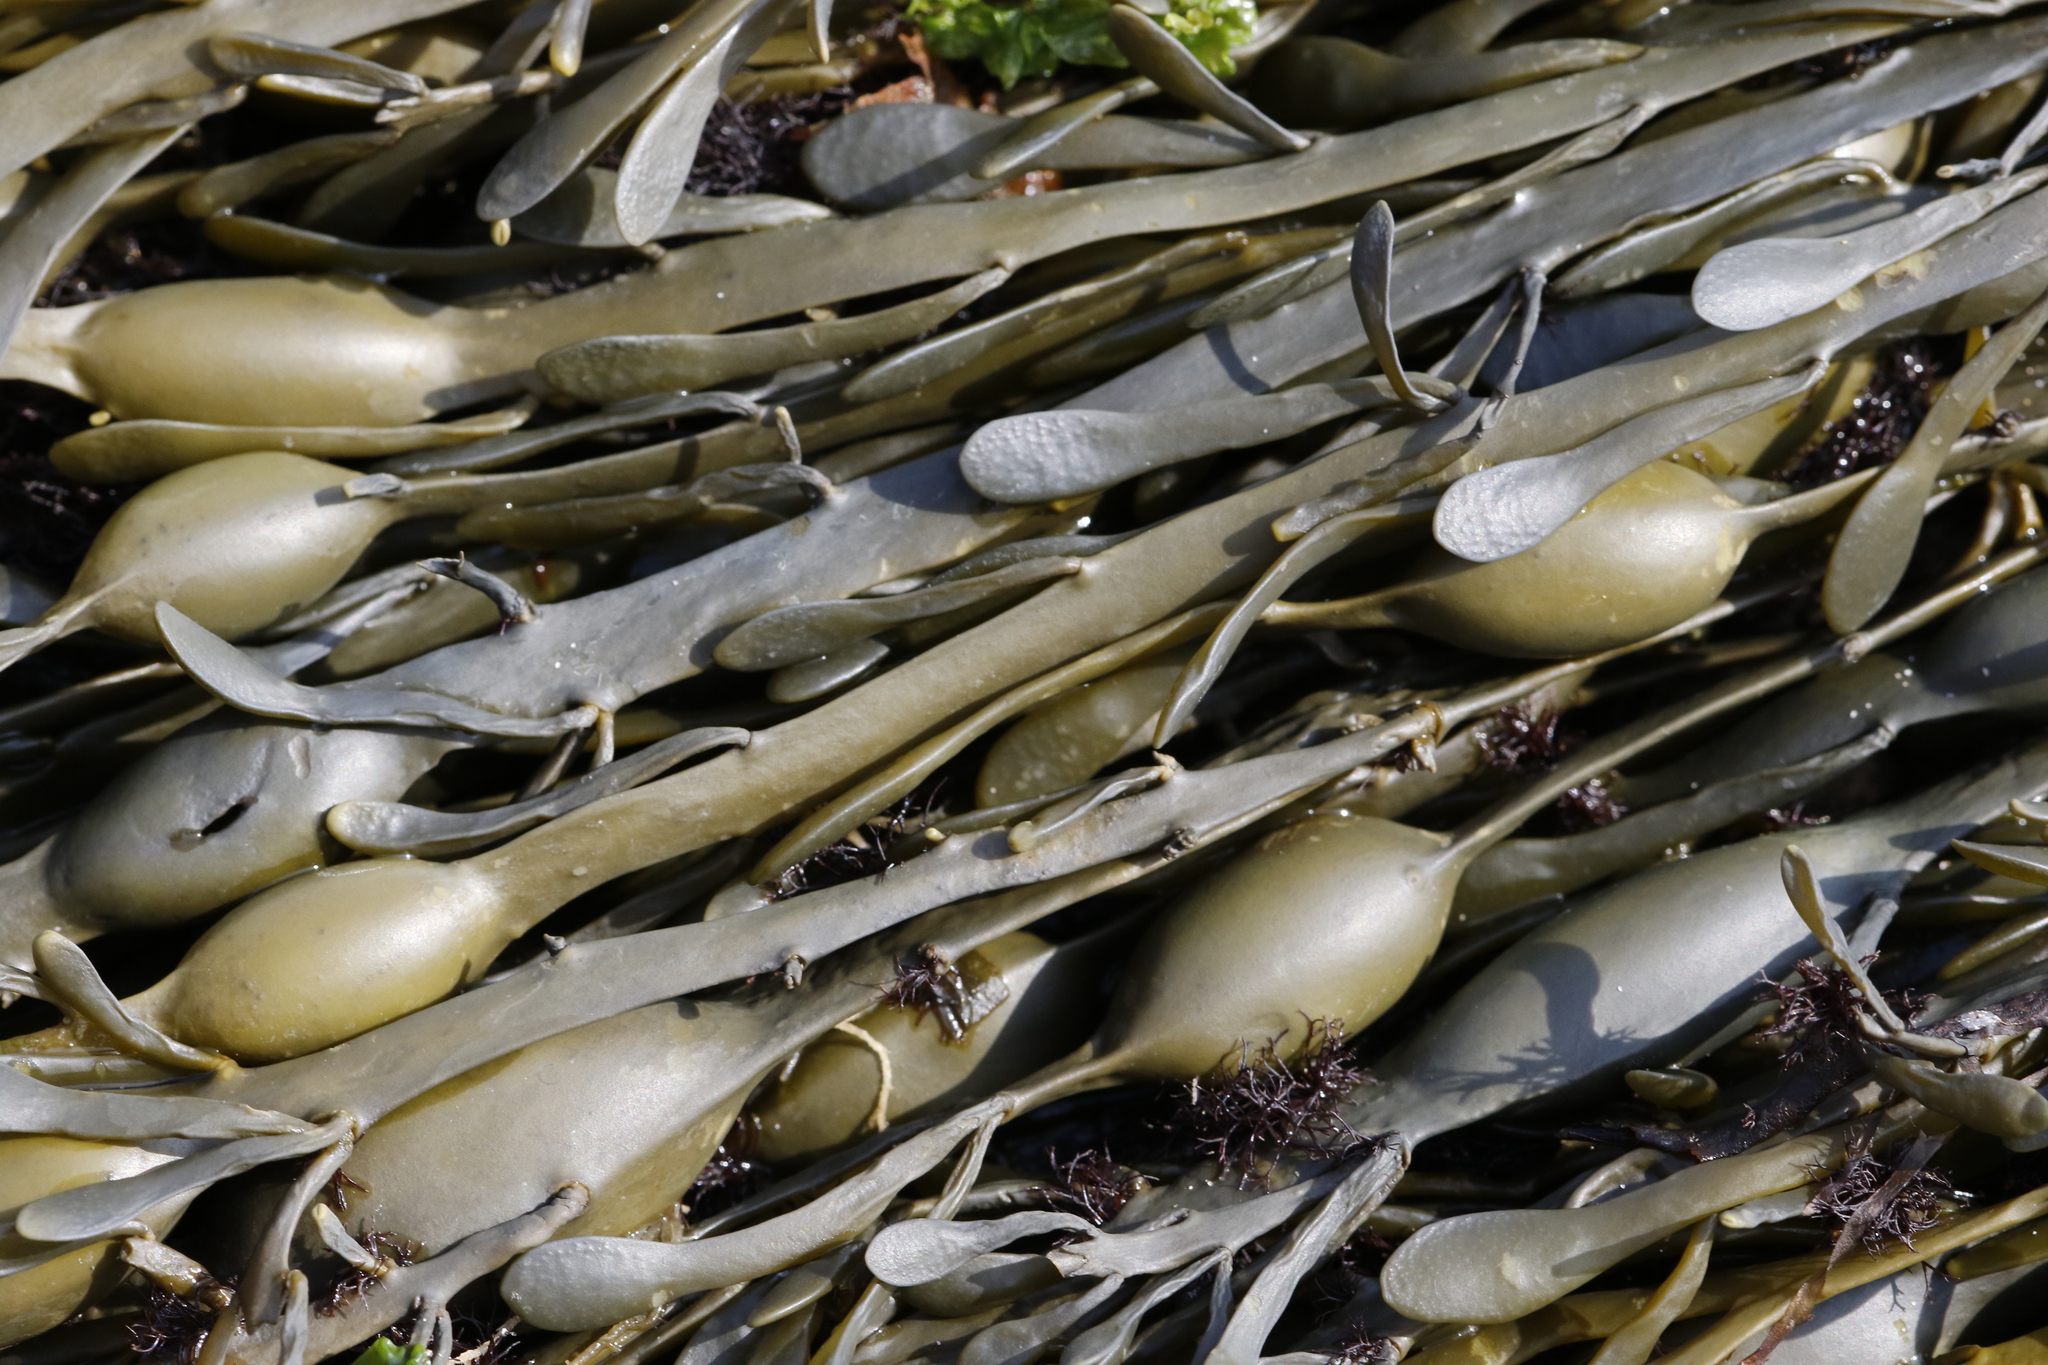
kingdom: Chromista
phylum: Ochrophyta
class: Phaeophyceae
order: Fucales
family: Fucaceae
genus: Ascophyllum
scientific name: Ascophyllum nodosum
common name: Knotted wrack
